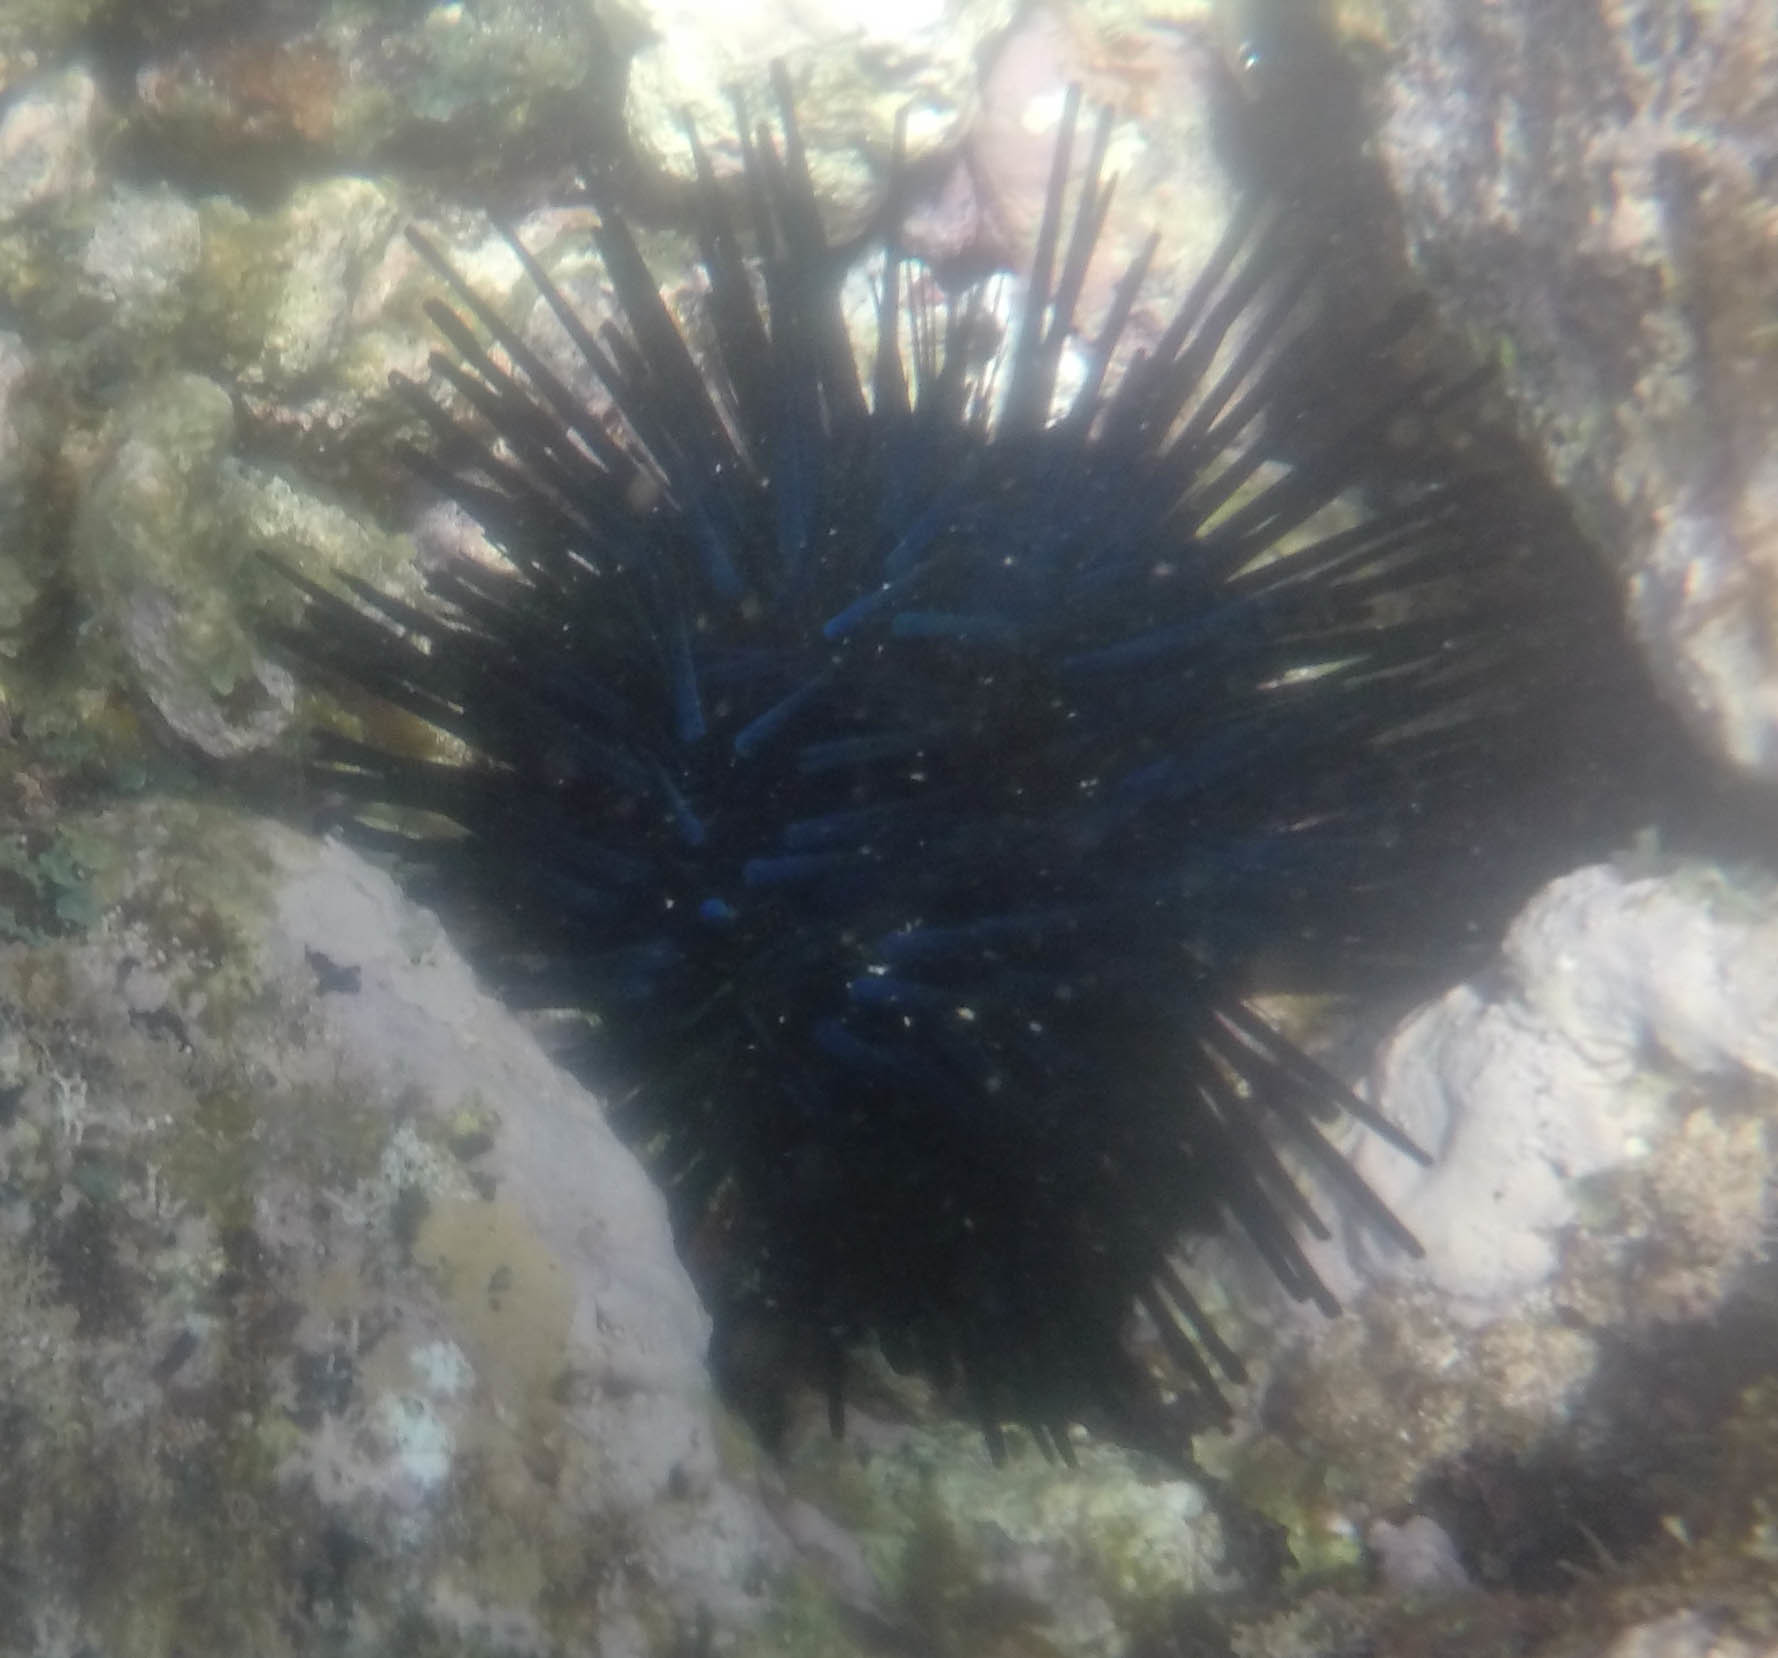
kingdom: Animalia
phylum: Echinodermata
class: Echinoidea
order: Diadematoida
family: Diadematidae
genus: Echinothrix
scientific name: Echinothrix diadema
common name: Schwarzer diademseeigel
